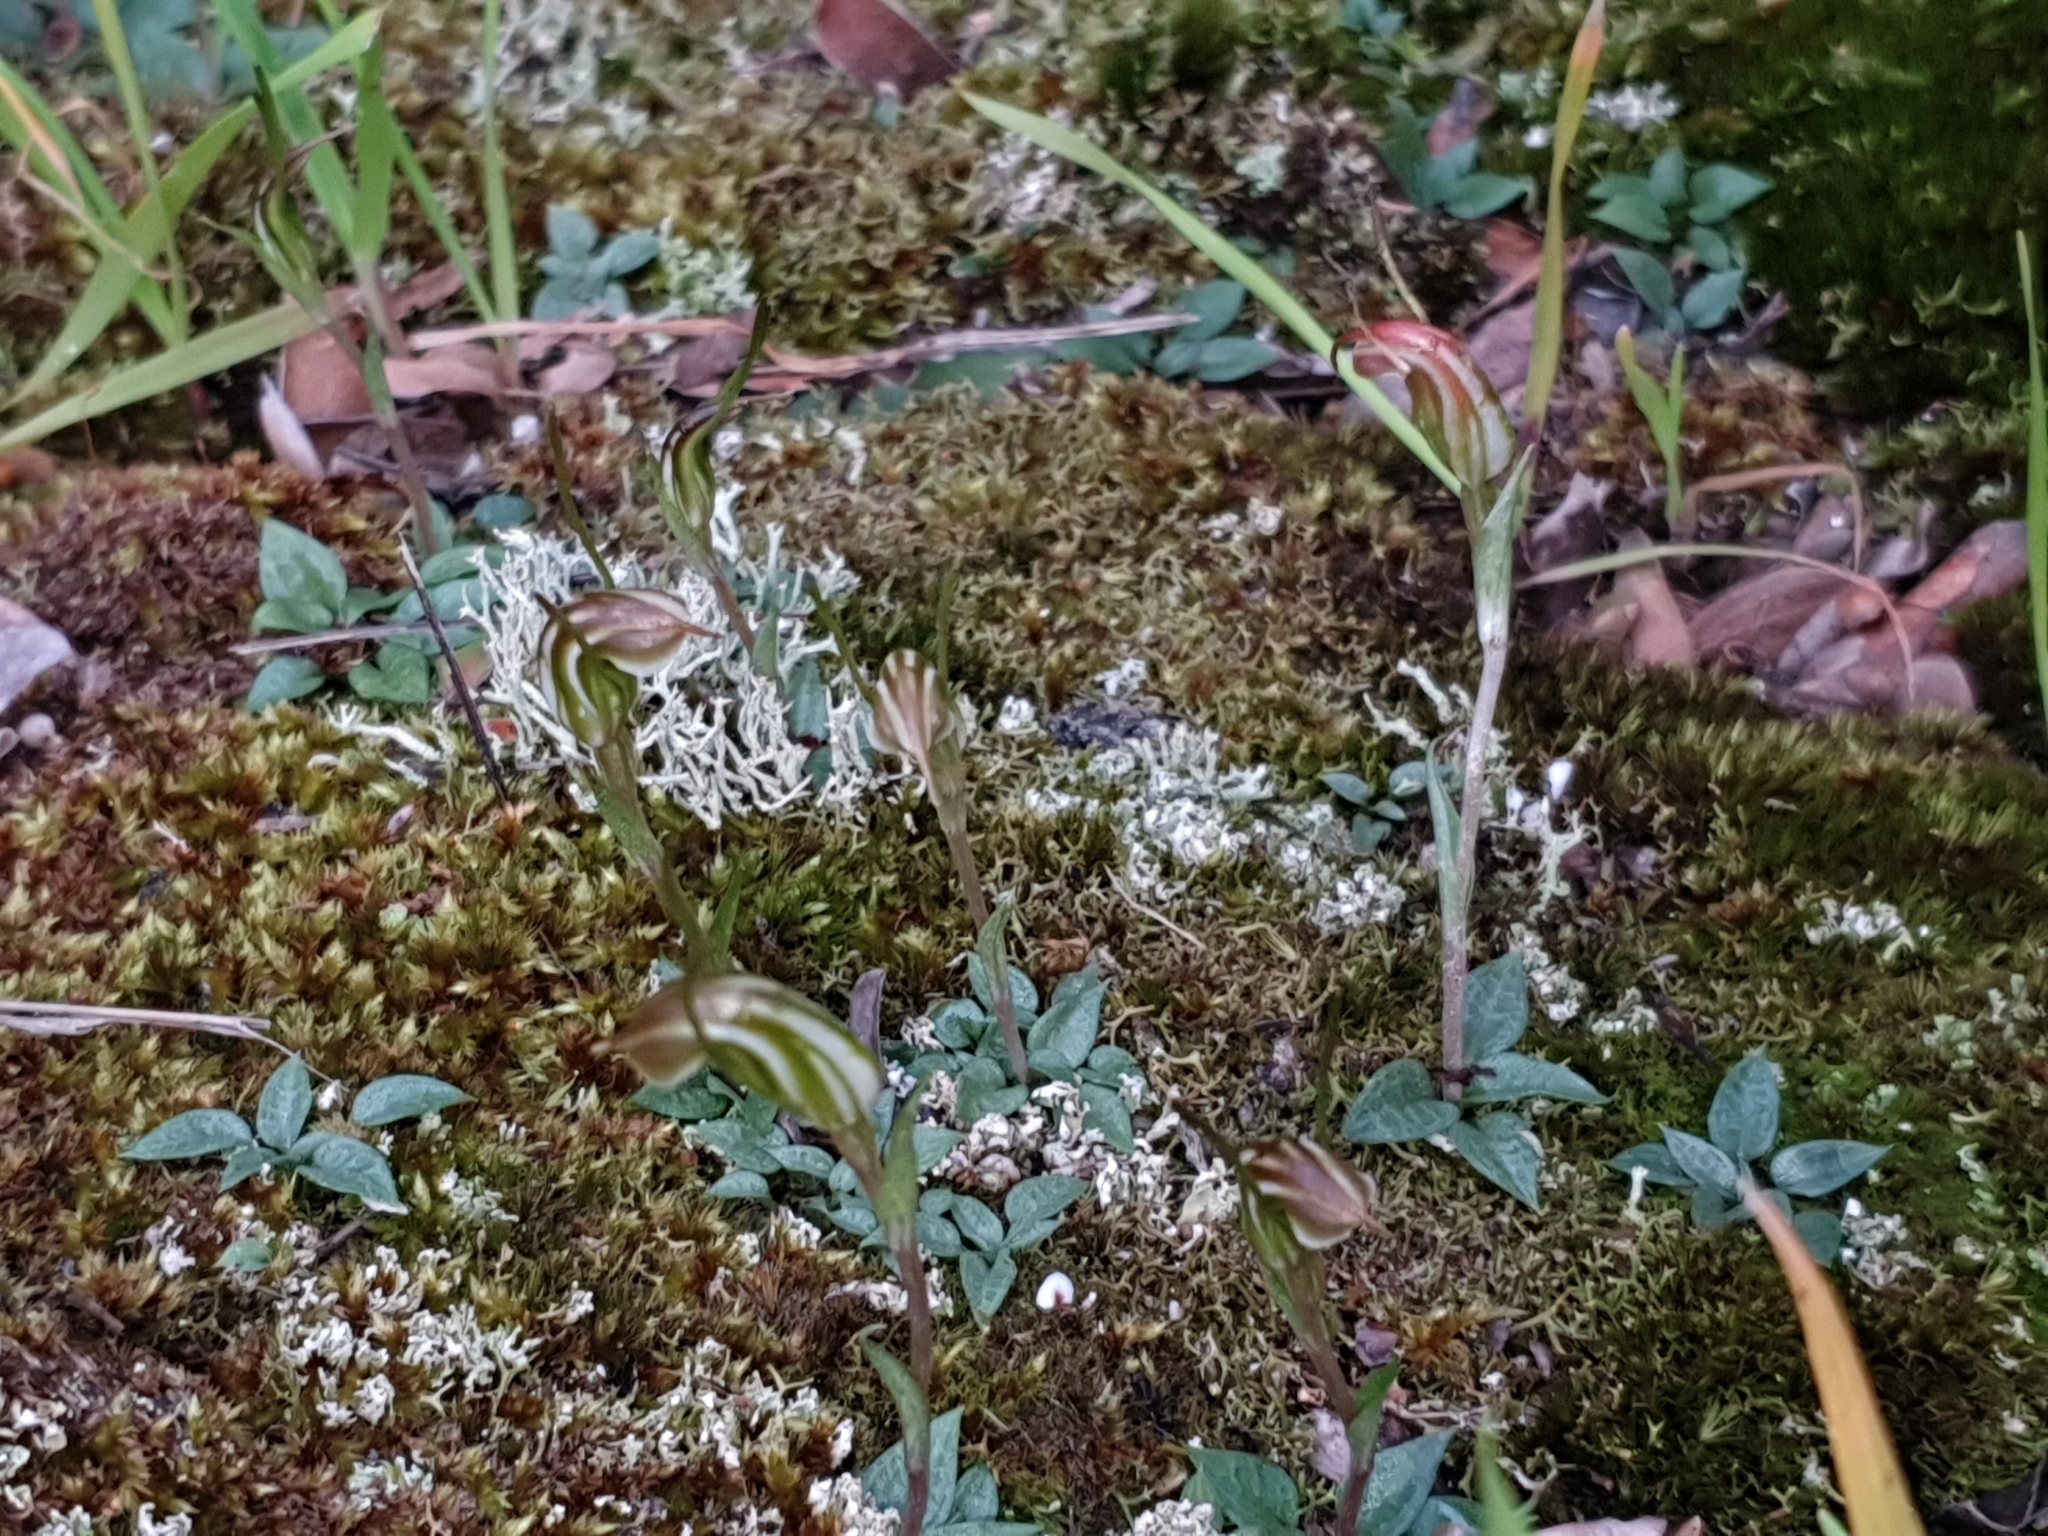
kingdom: Plantae
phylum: Tracheophyta
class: Liliopsida
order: Asparagales
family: Orchidaceae
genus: Pterostylis
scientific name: Pterostylis parva
